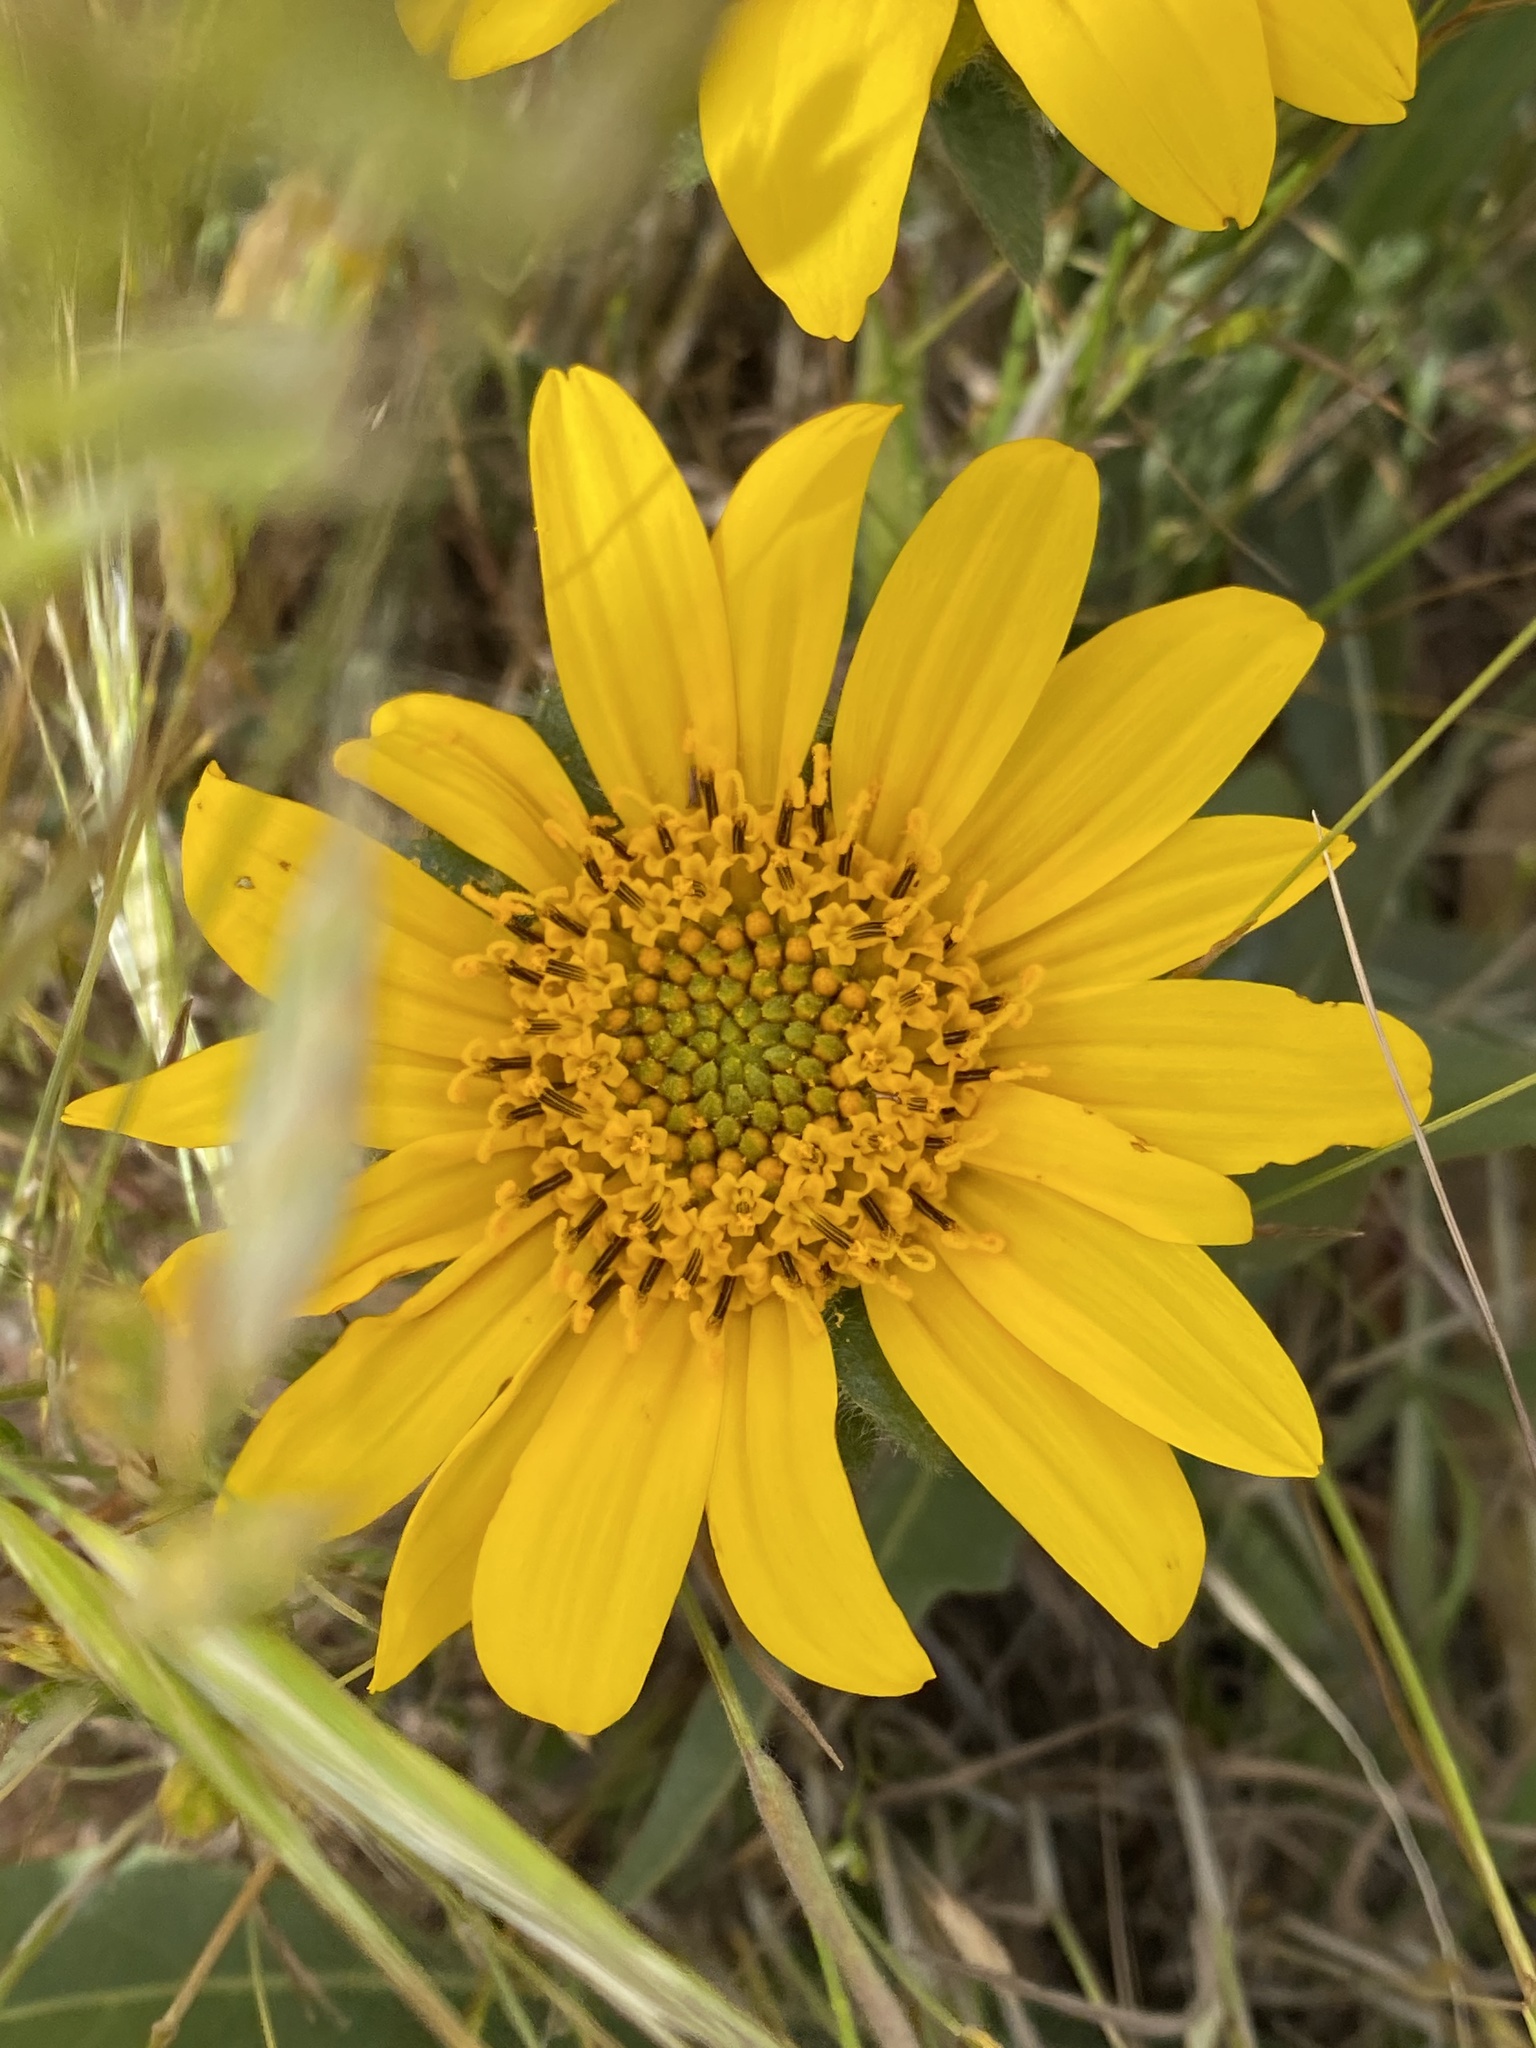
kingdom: Plantae
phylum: Tracheophyta
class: Magnoliopsida
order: Asterales
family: Asteraceae
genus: Wyethia
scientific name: Wyethia angustifolia
